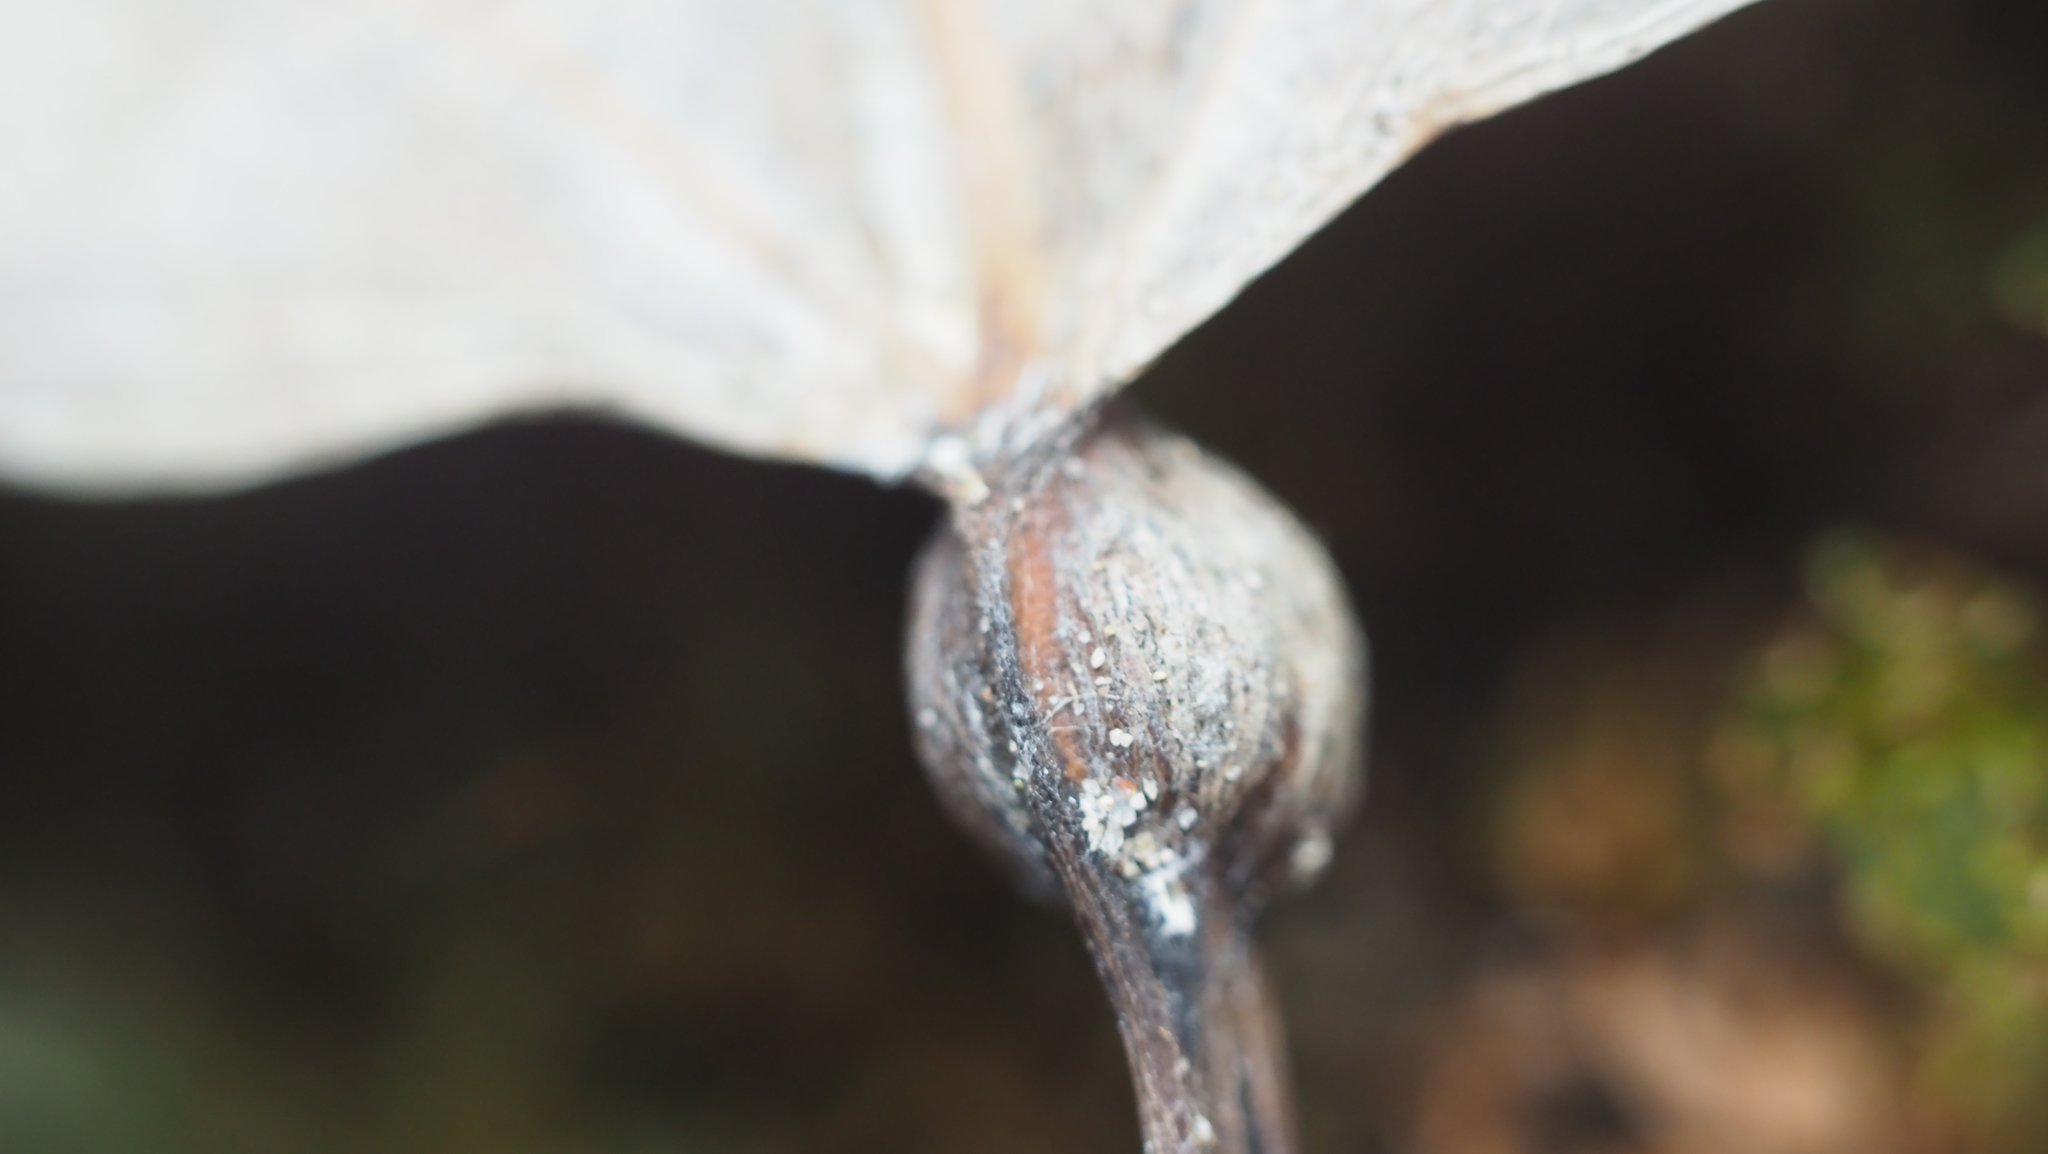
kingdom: Animalia
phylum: Arthropoda
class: Insecta
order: Lepidoptera
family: Nepticulidae
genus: Ectoedemia
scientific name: Ectoedemia populella
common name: Aspen petiole gall moth
